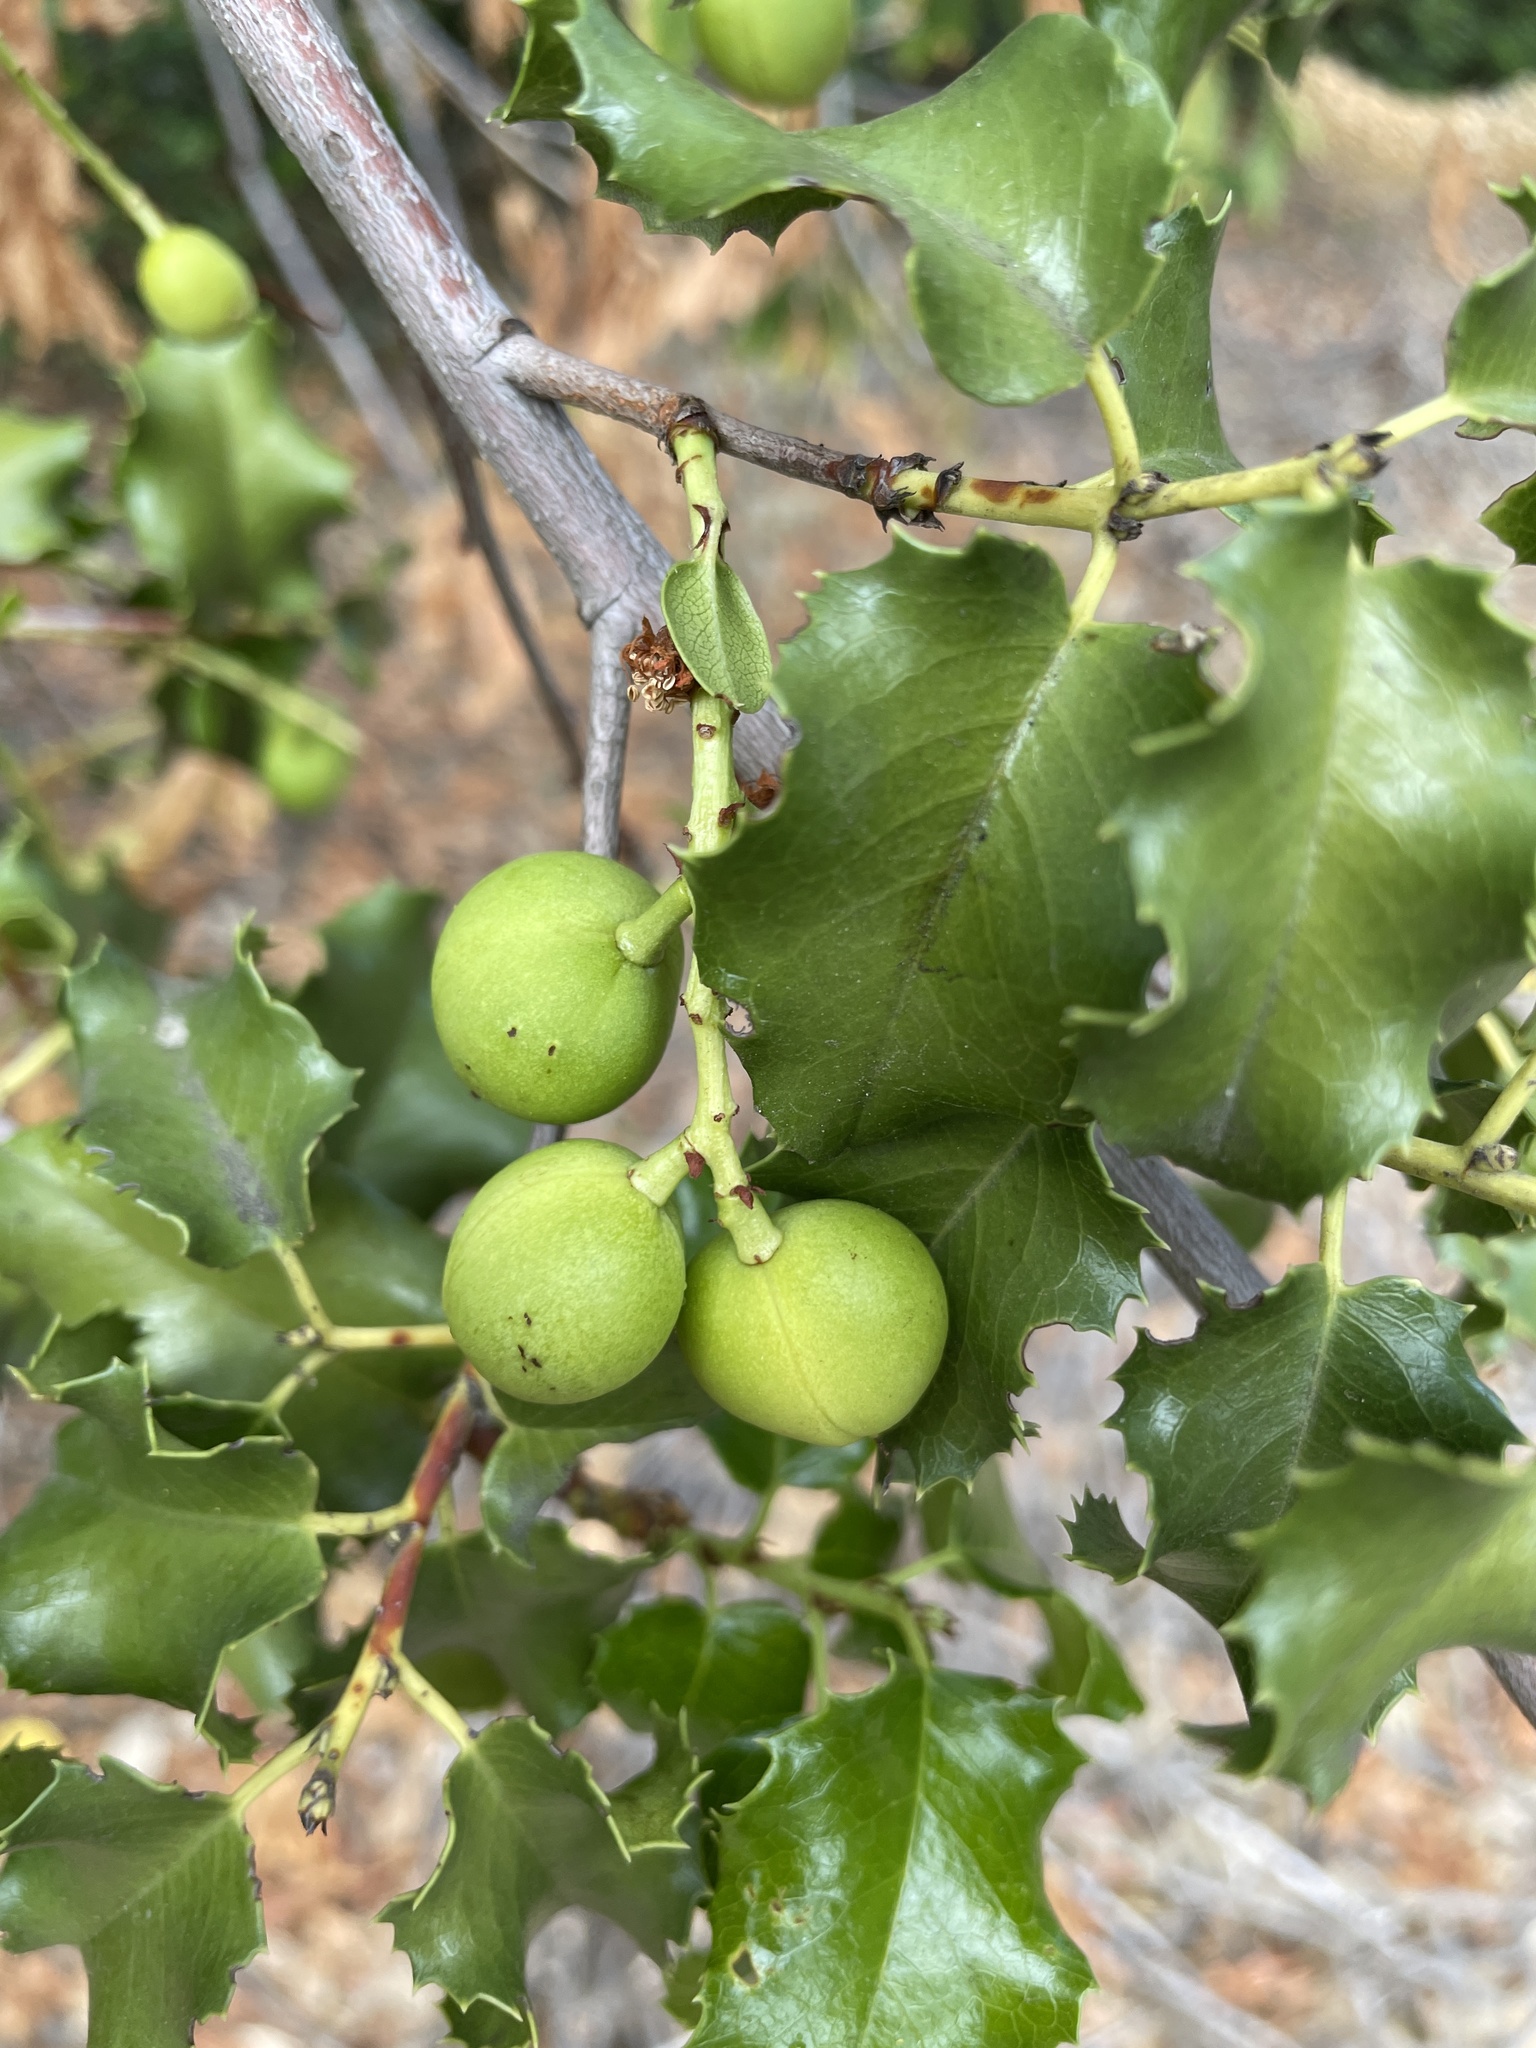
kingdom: Plantae
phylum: Tracheophyta
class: Magnoliopsida
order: Rosales
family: Rosaceae
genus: Prunus
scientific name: Prunus ilicifolia
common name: Hollyleaf cherry
